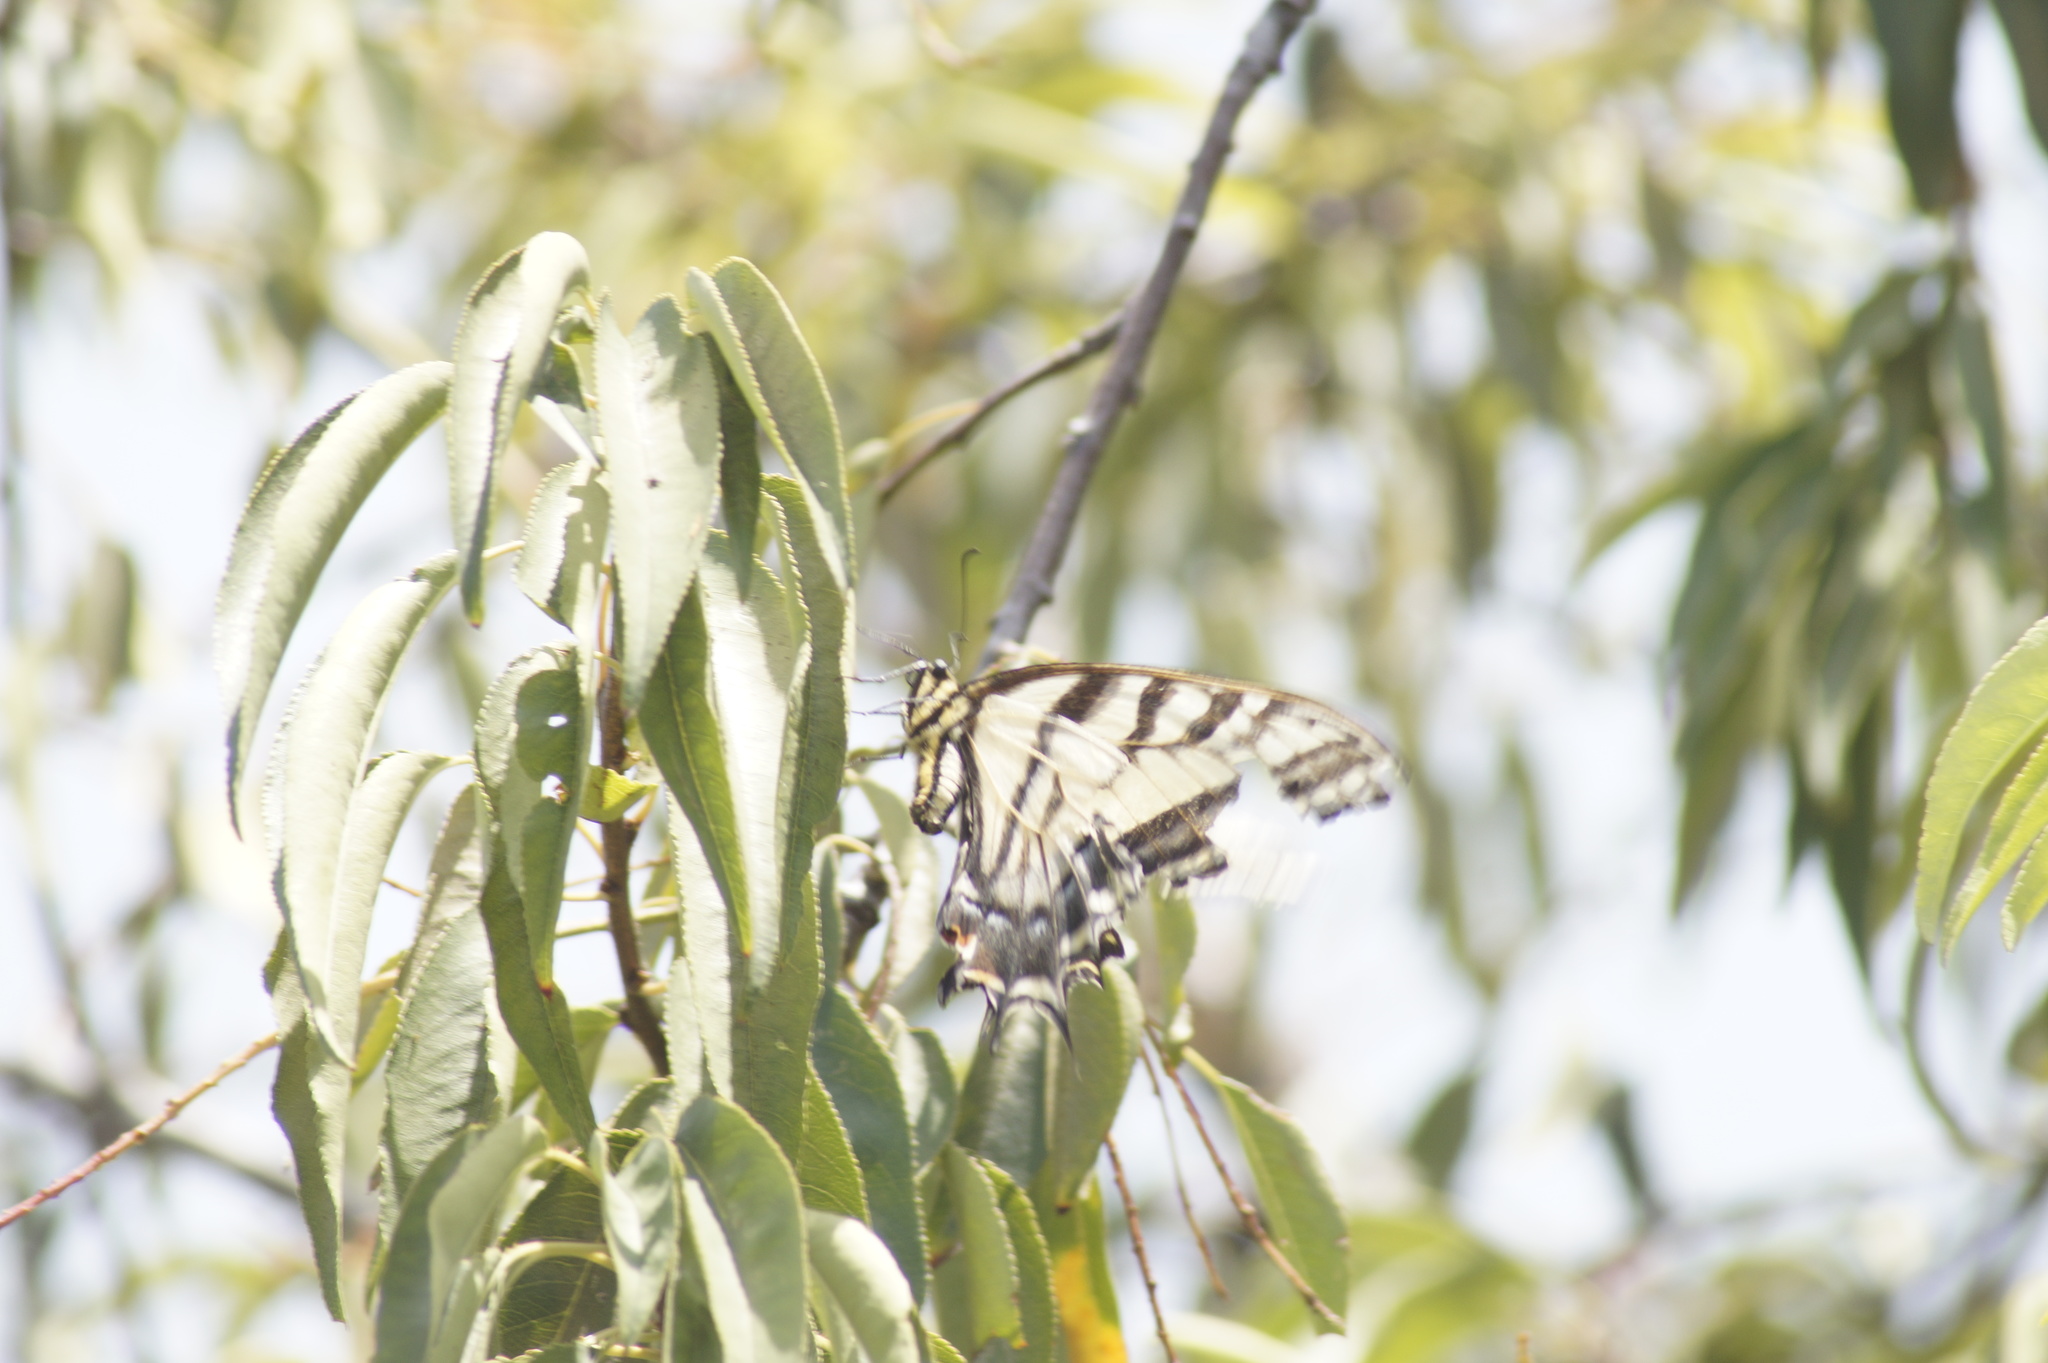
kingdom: Animalia
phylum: Arthropoda
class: Insecta
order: Lepidoptera
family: Papilionidae
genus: Papilio
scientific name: Papilio multicaudata
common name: Two-tailed tiger swallowtail
